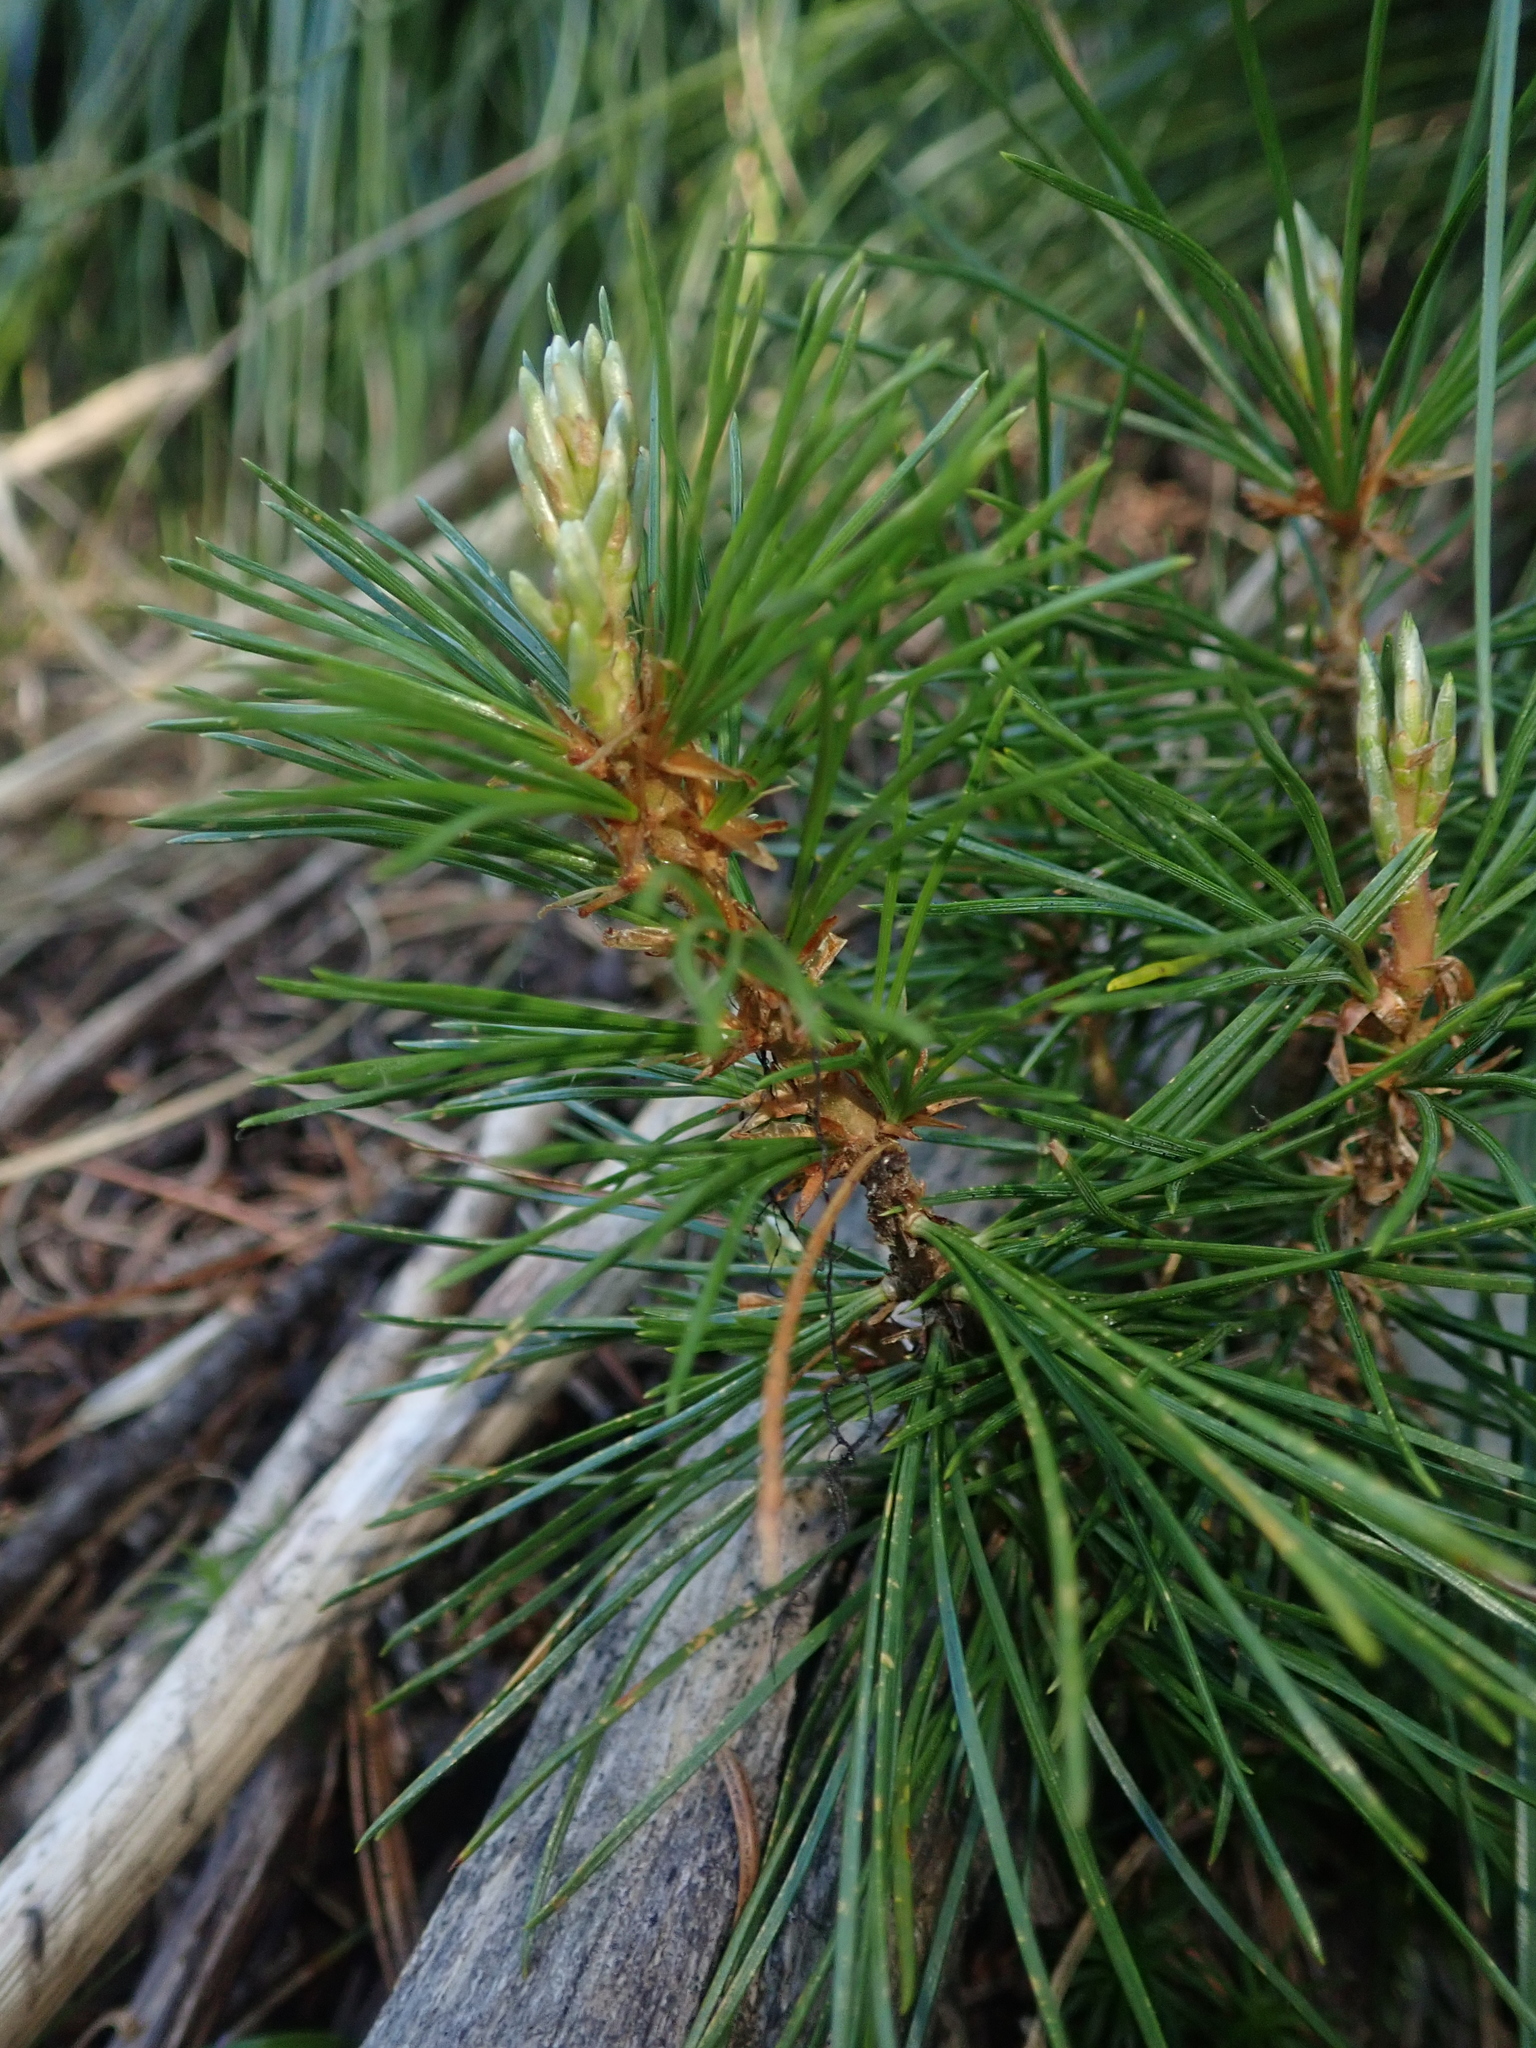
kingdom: Plantae
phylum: Tracheophyta
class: Pinopsida
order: Pinales
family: Pinaceae
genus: Pinus
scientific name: Pinus contorta
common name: Lodgepole pine
